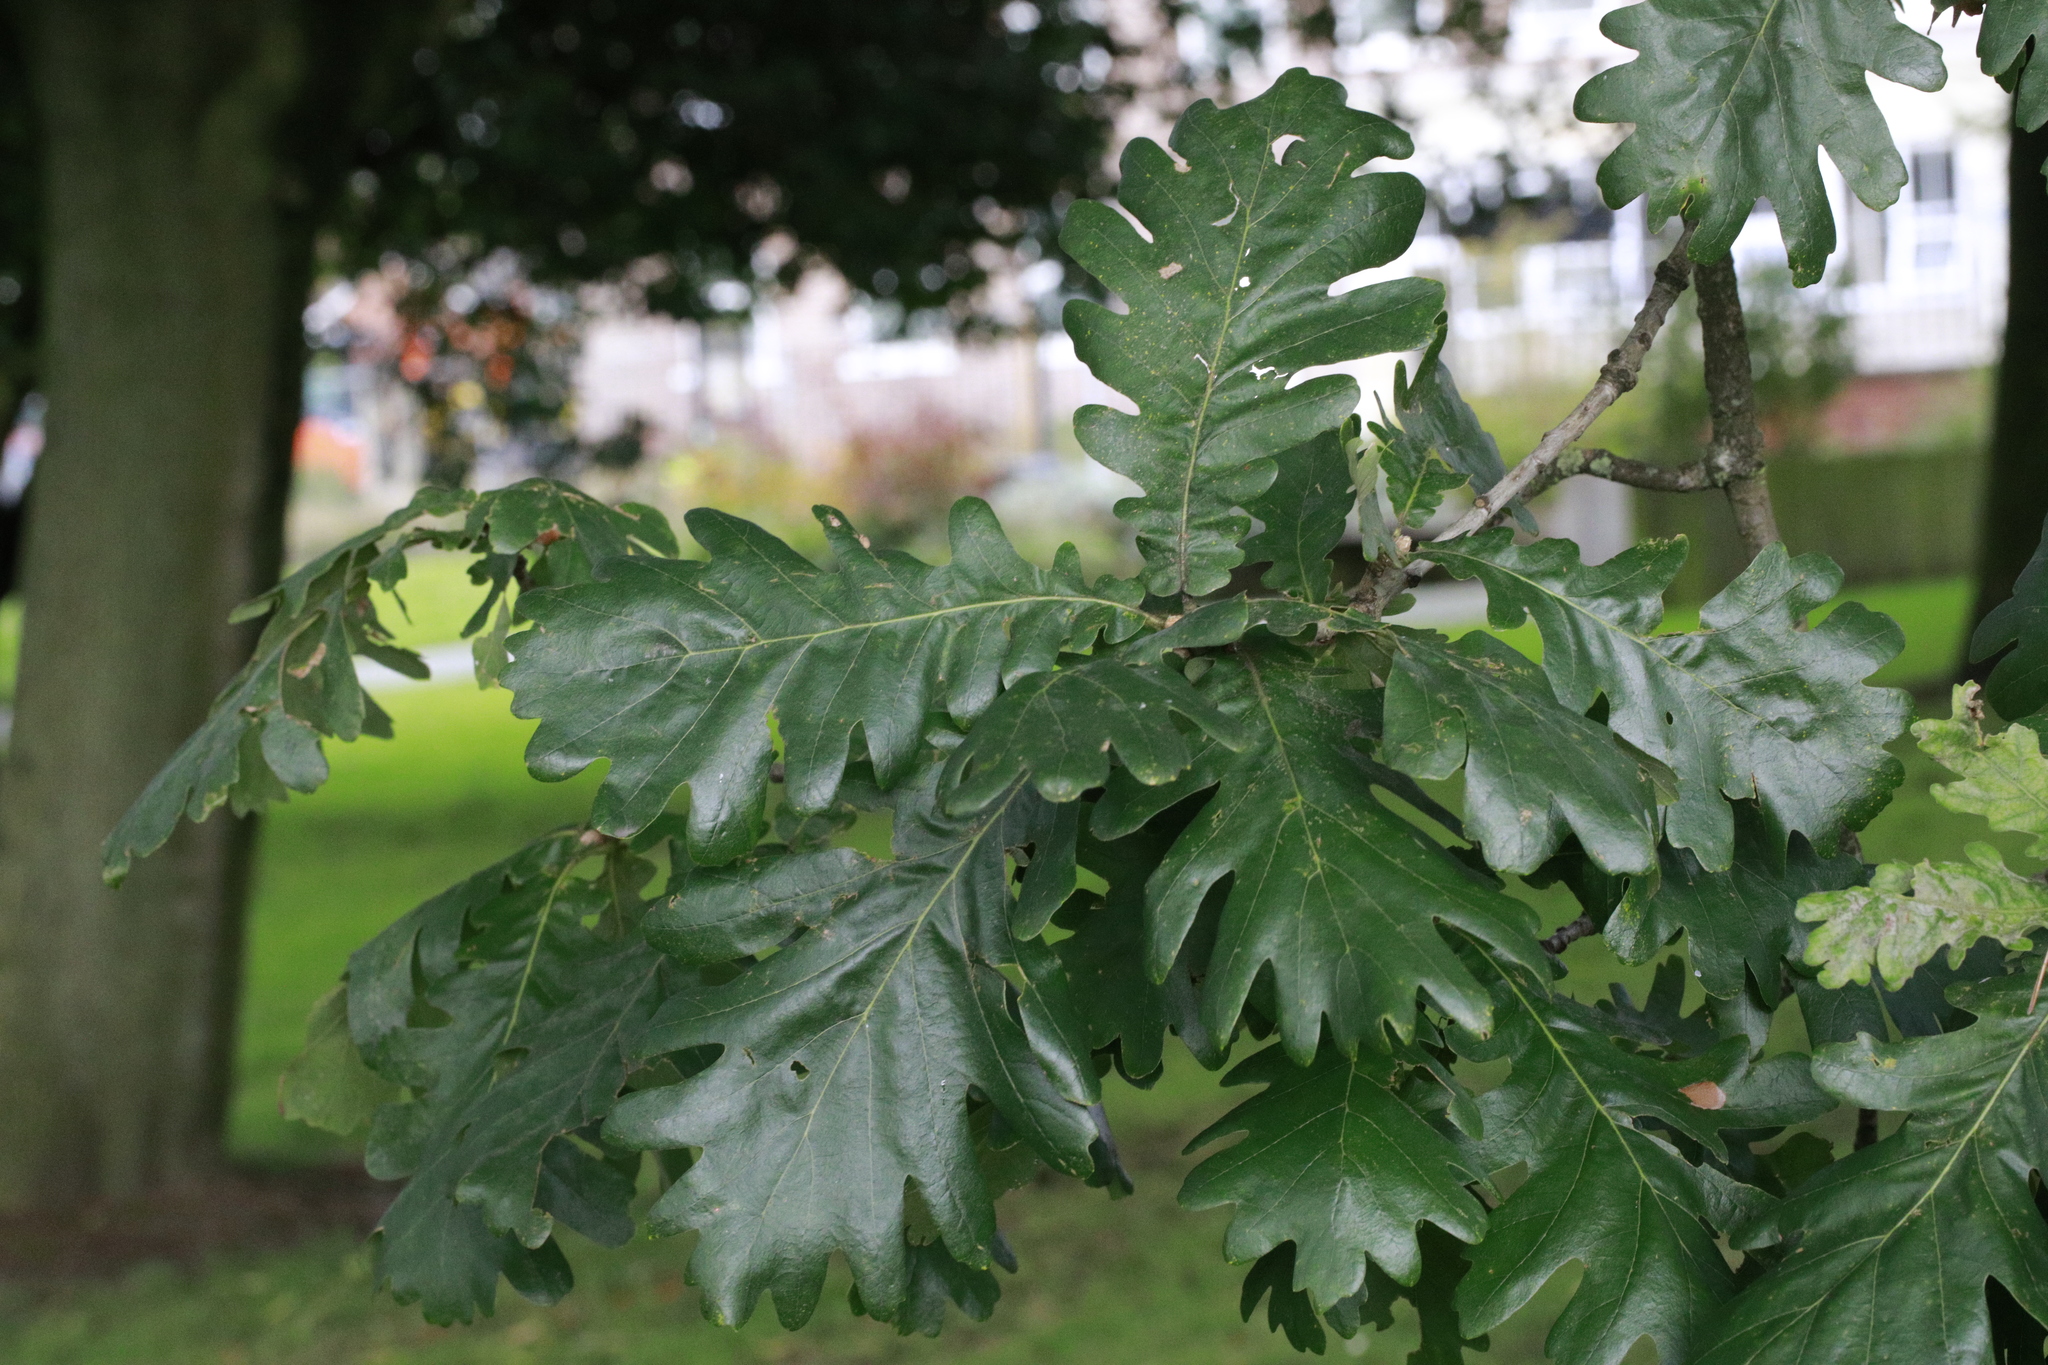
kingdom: Plantae
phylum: Tracheophyta
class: Magnoliopsida
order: Fagales
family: Fagaceae
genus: Quercus
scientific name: Quercus robur
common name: Pedunculate oak
